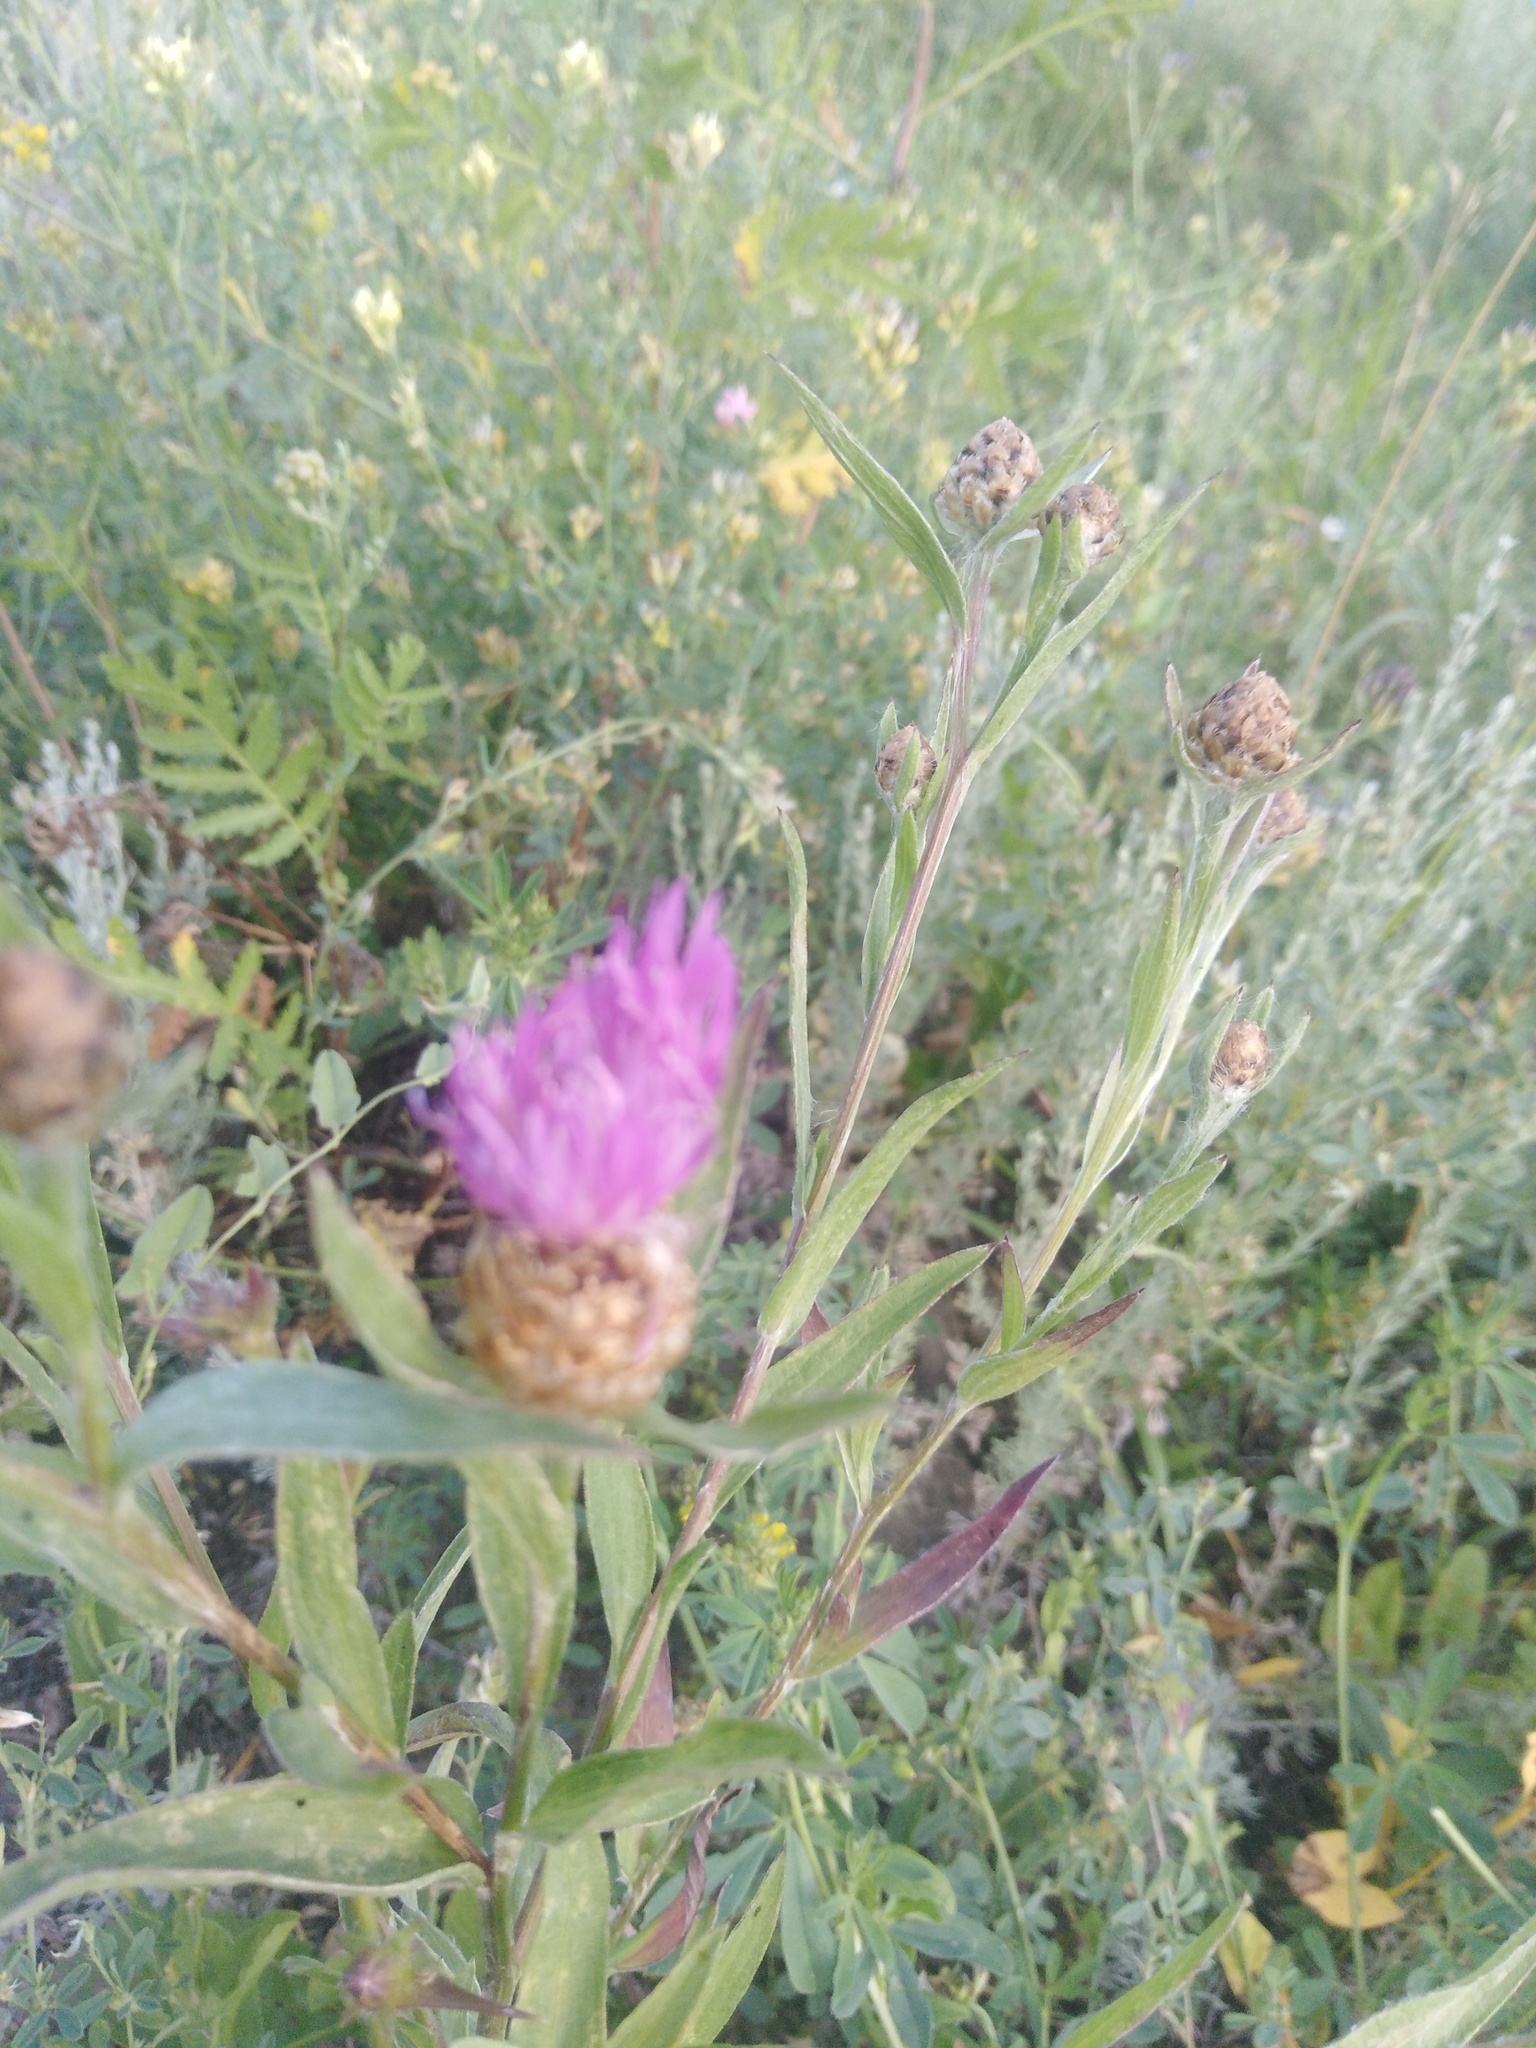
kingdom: Plantae
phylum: Tracheophyta
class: Magnoliopsida
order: Asterales
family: Asteraceae
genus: Centaurea
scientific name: Centaurea jacea
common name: Brown knapweed
